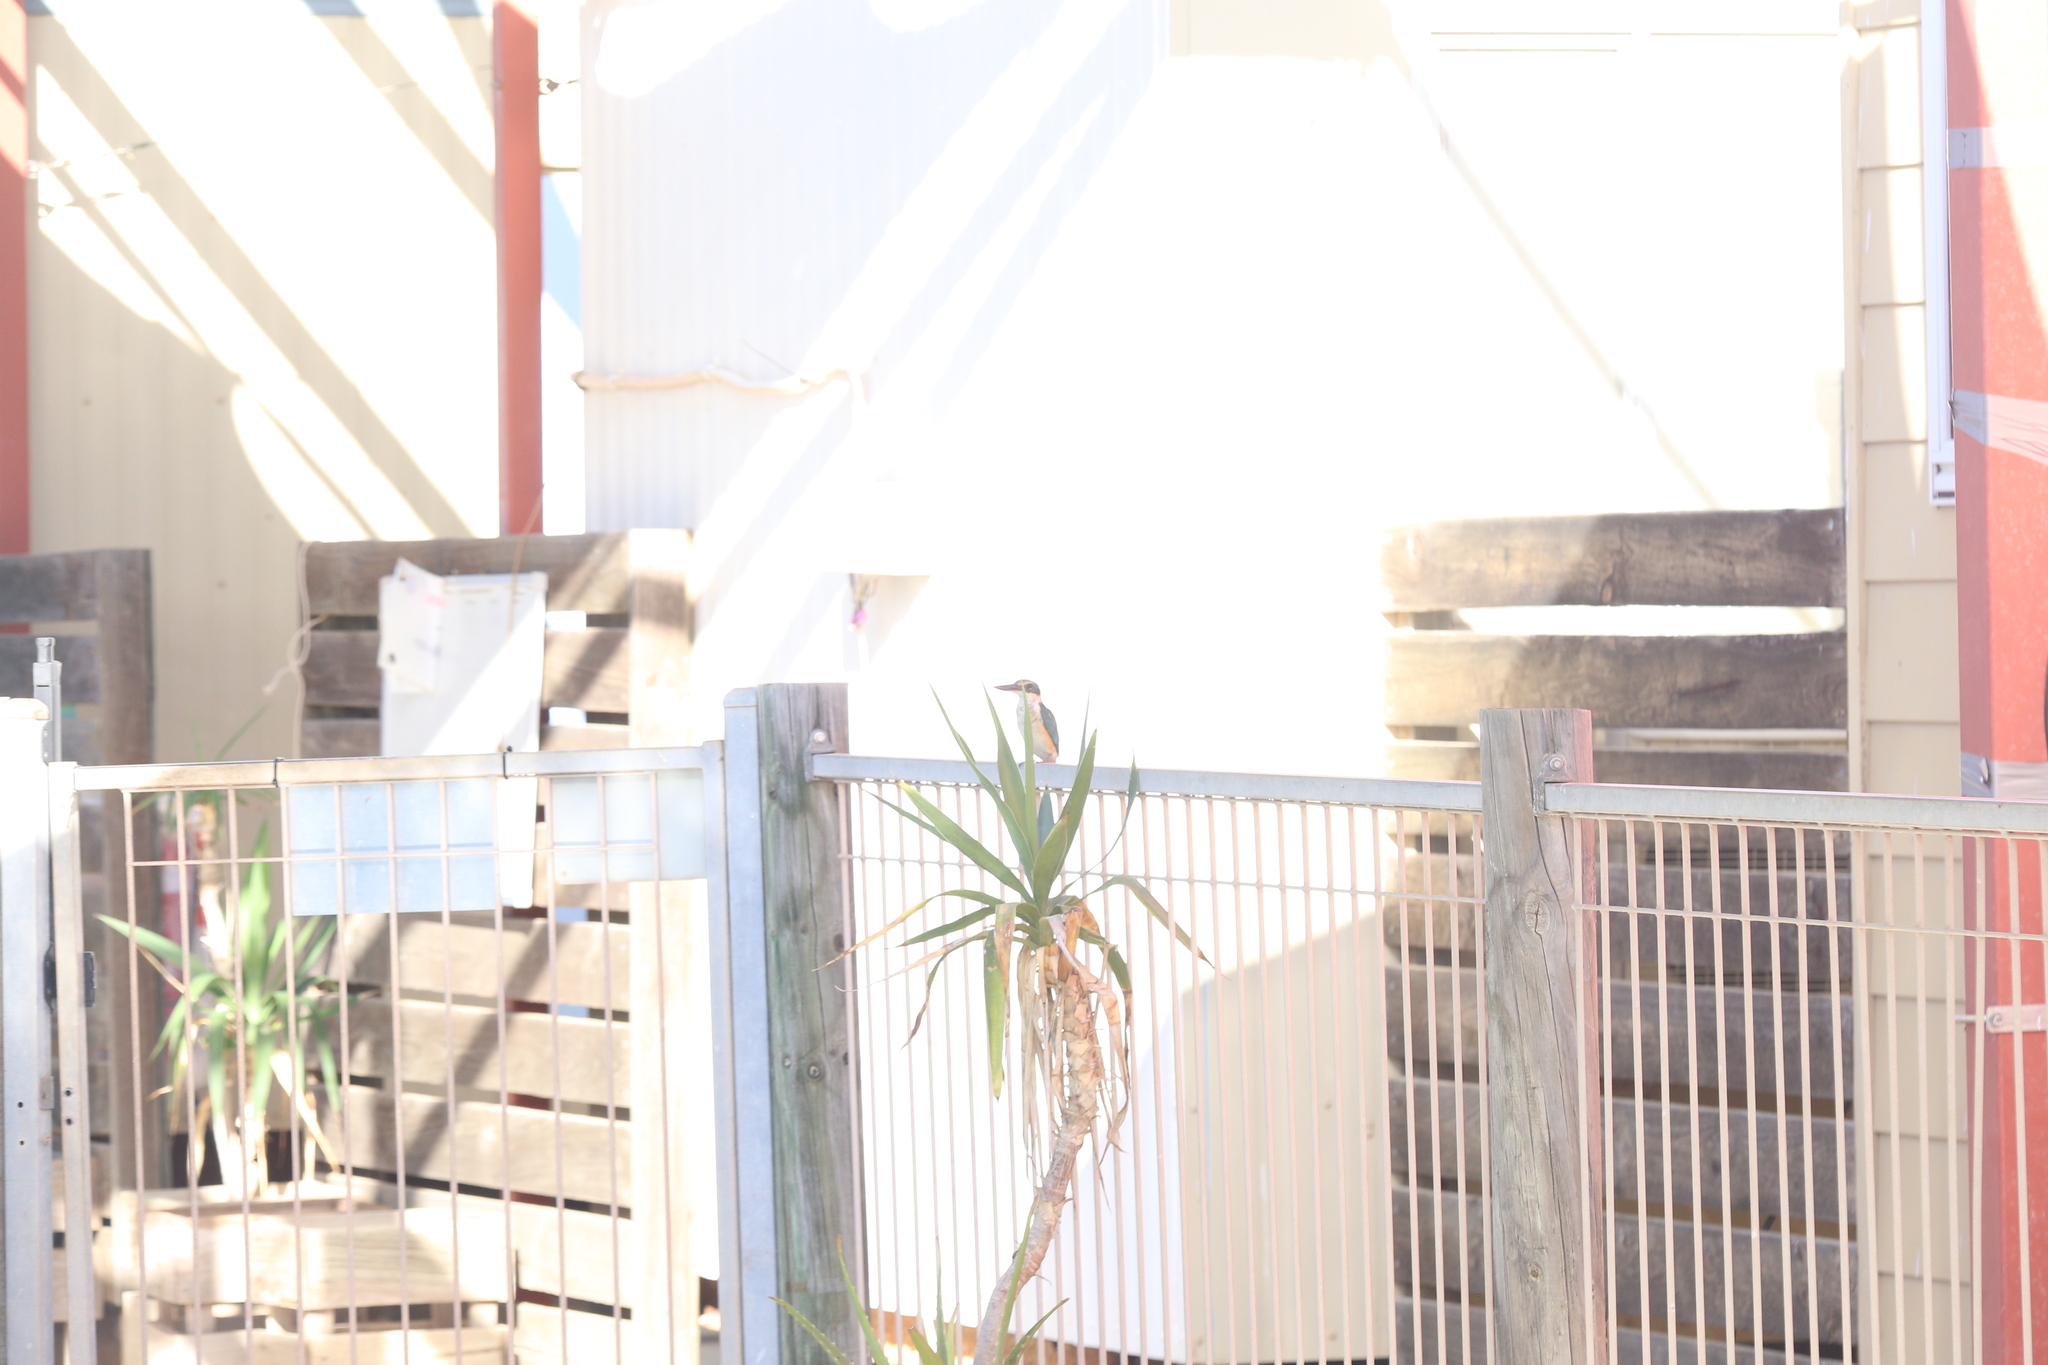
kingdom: Animalia
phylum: Chordata
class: Aves
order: Coraciiformes
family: Alcedinidae
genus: Todiramphus
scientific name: Todiramphus sanctus
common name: Sacred kingfisher
